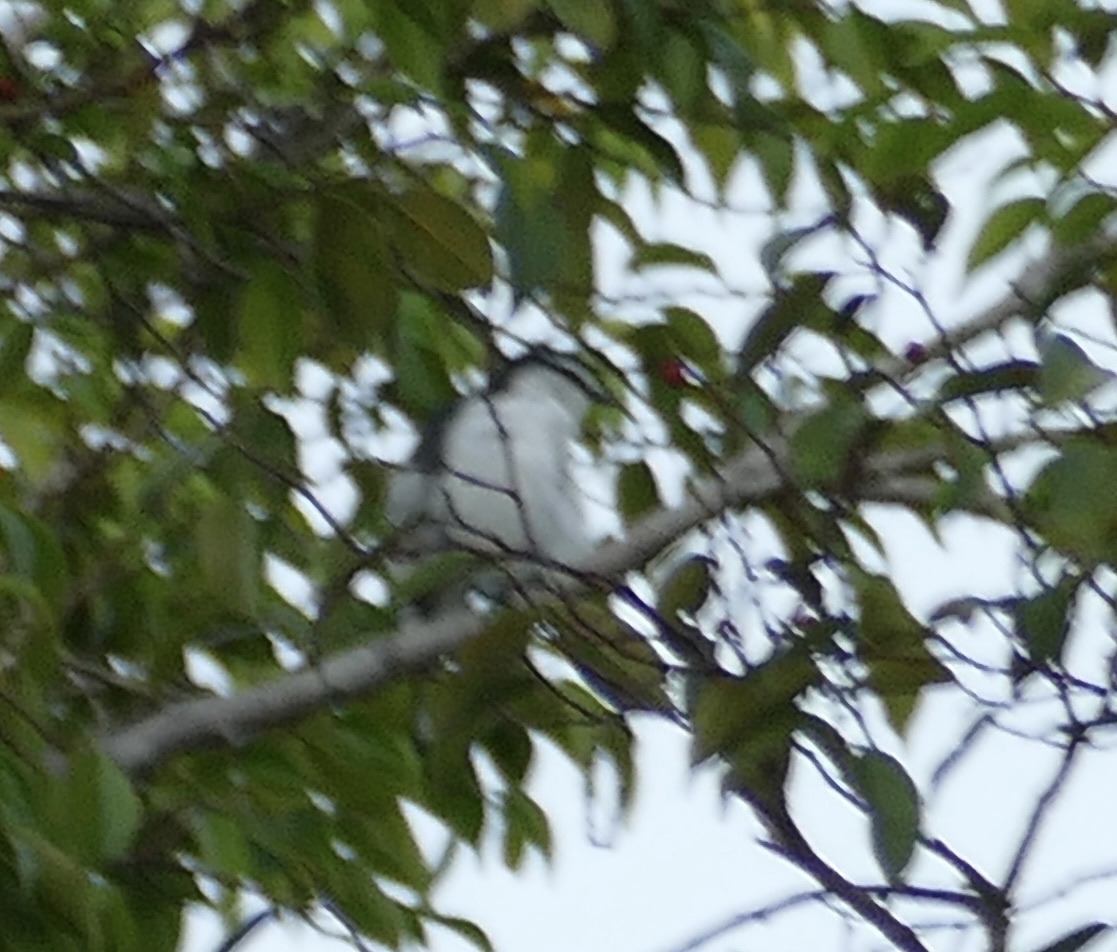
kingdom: Animalia
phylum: Chordata
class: Aves
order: Passeriformes
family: Campephagidae
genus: Lalage
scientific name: Lalage leucopygialis
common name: White-rumped triller
